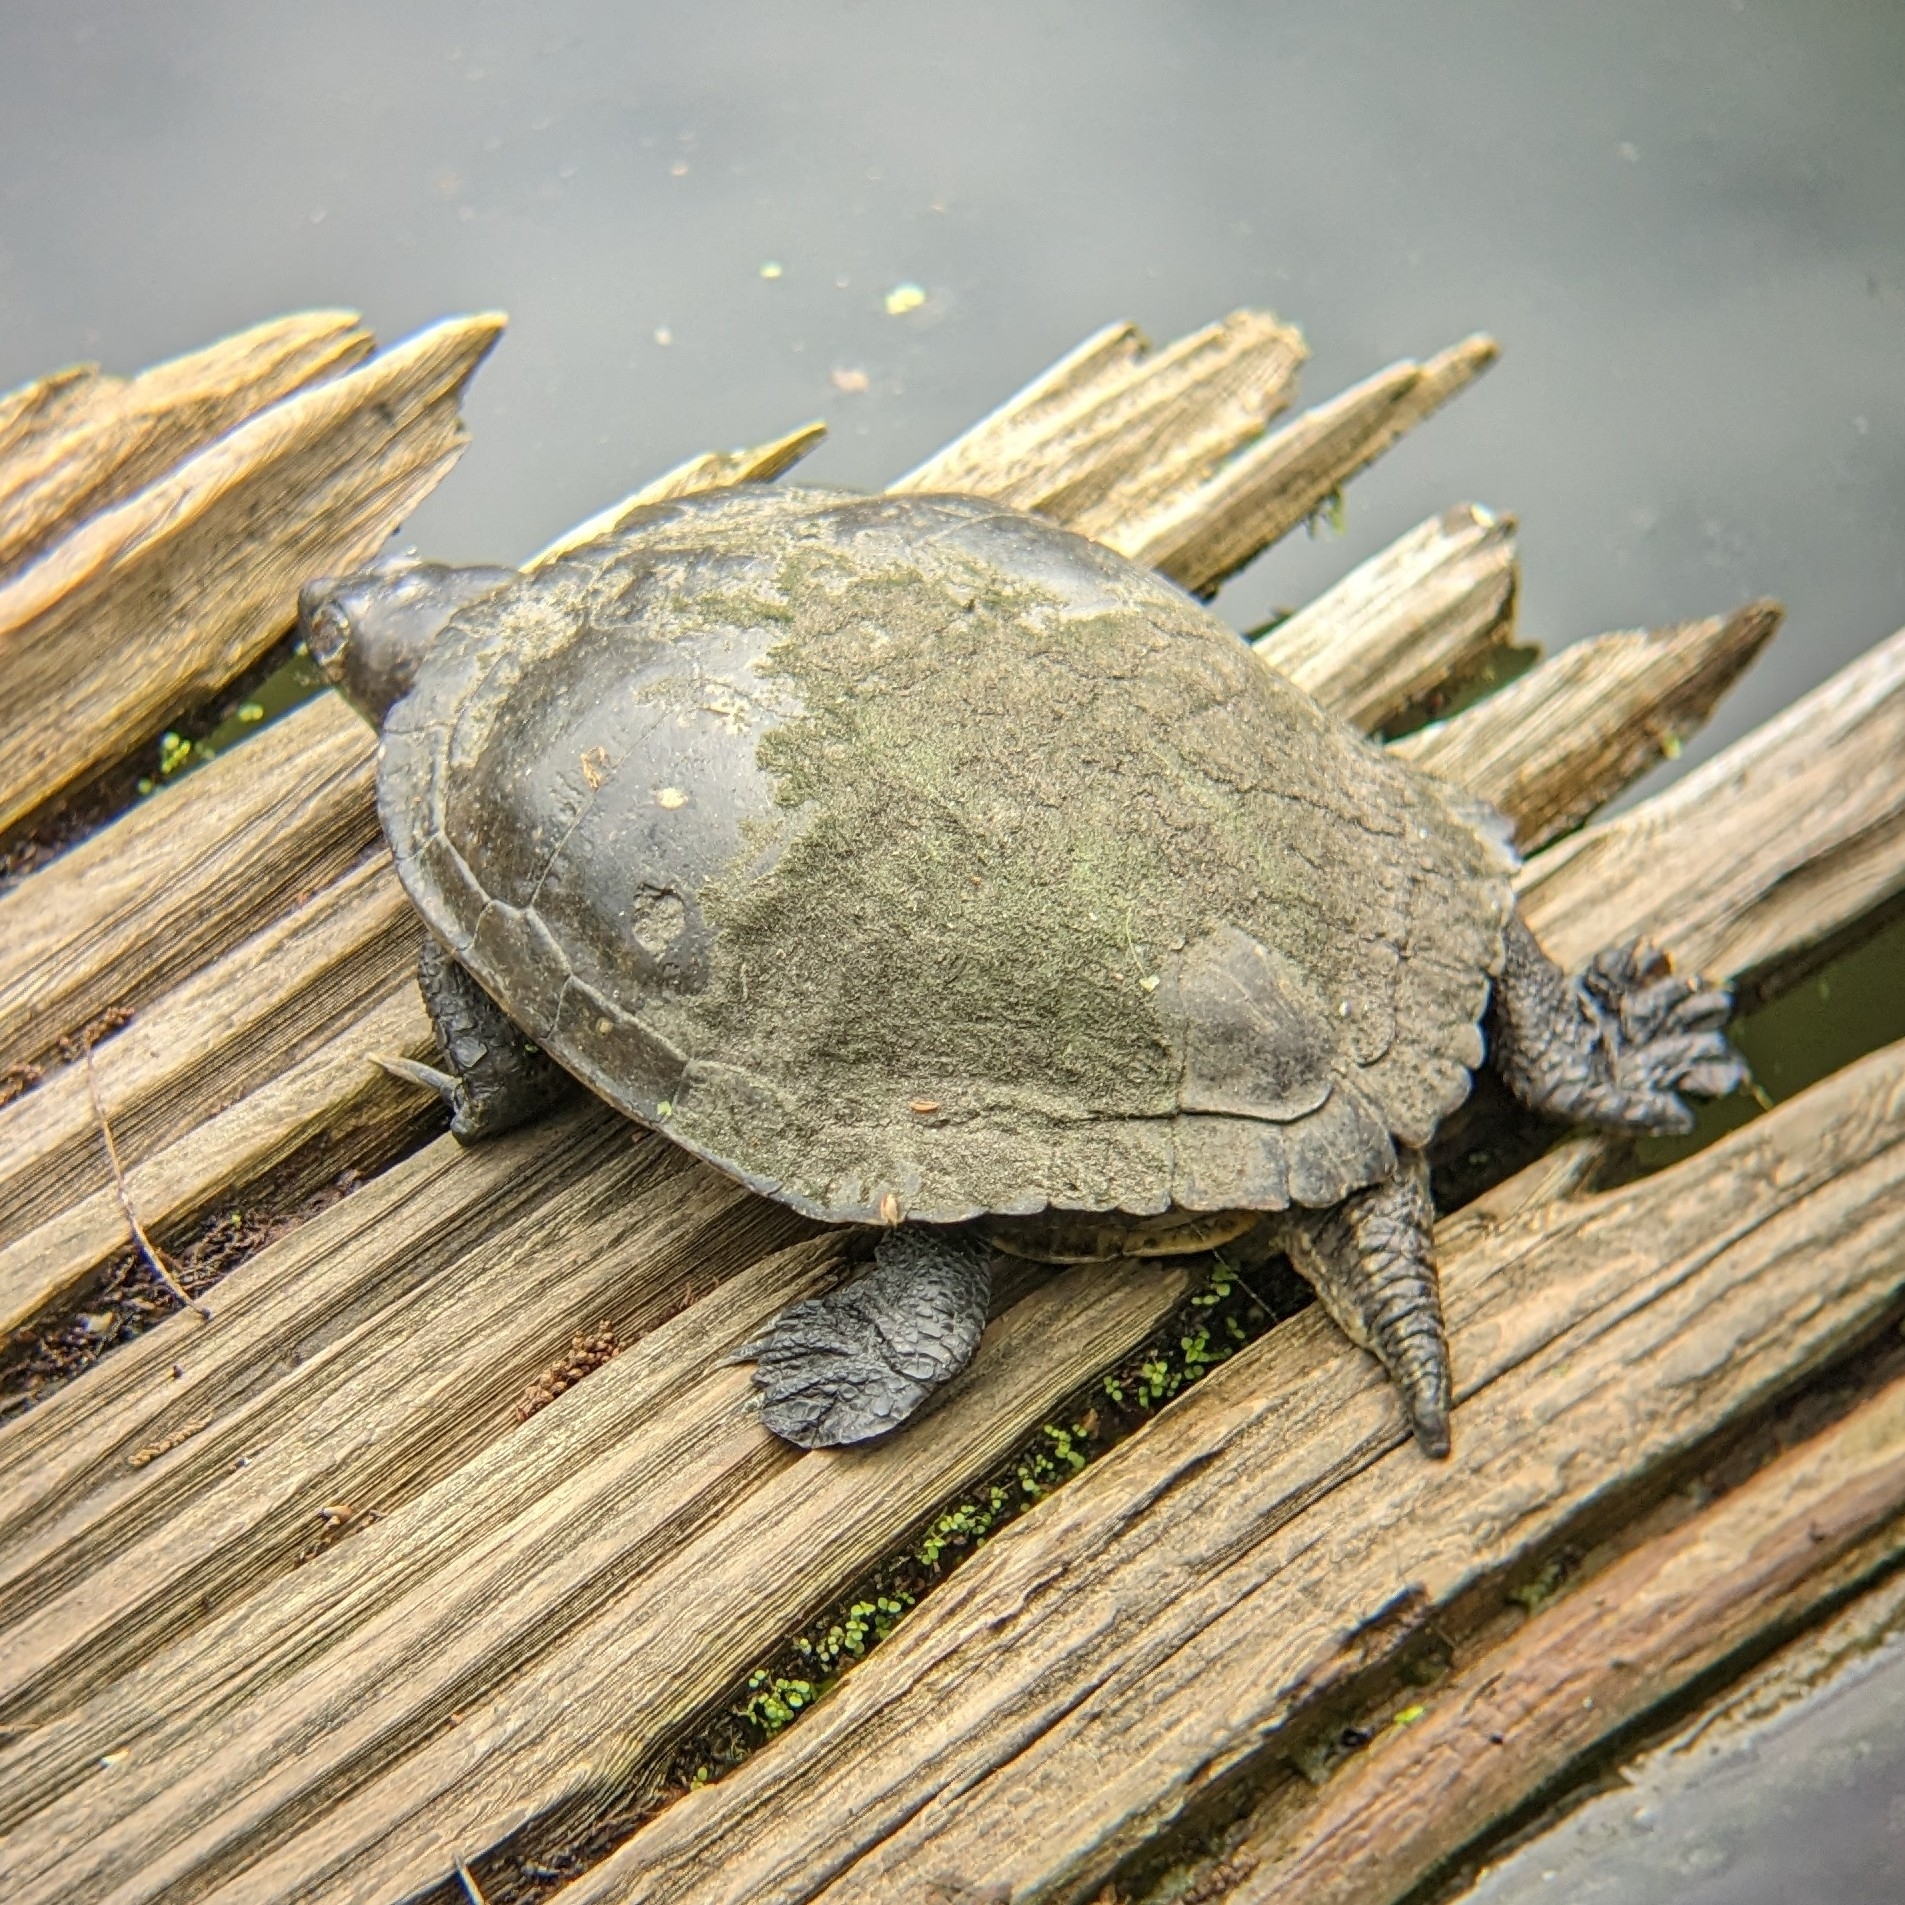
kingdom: Animalia
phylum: Chordata
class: Testudines
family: Emydidae
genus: Trachemys
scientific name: Trachemys scripta
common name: Slider
